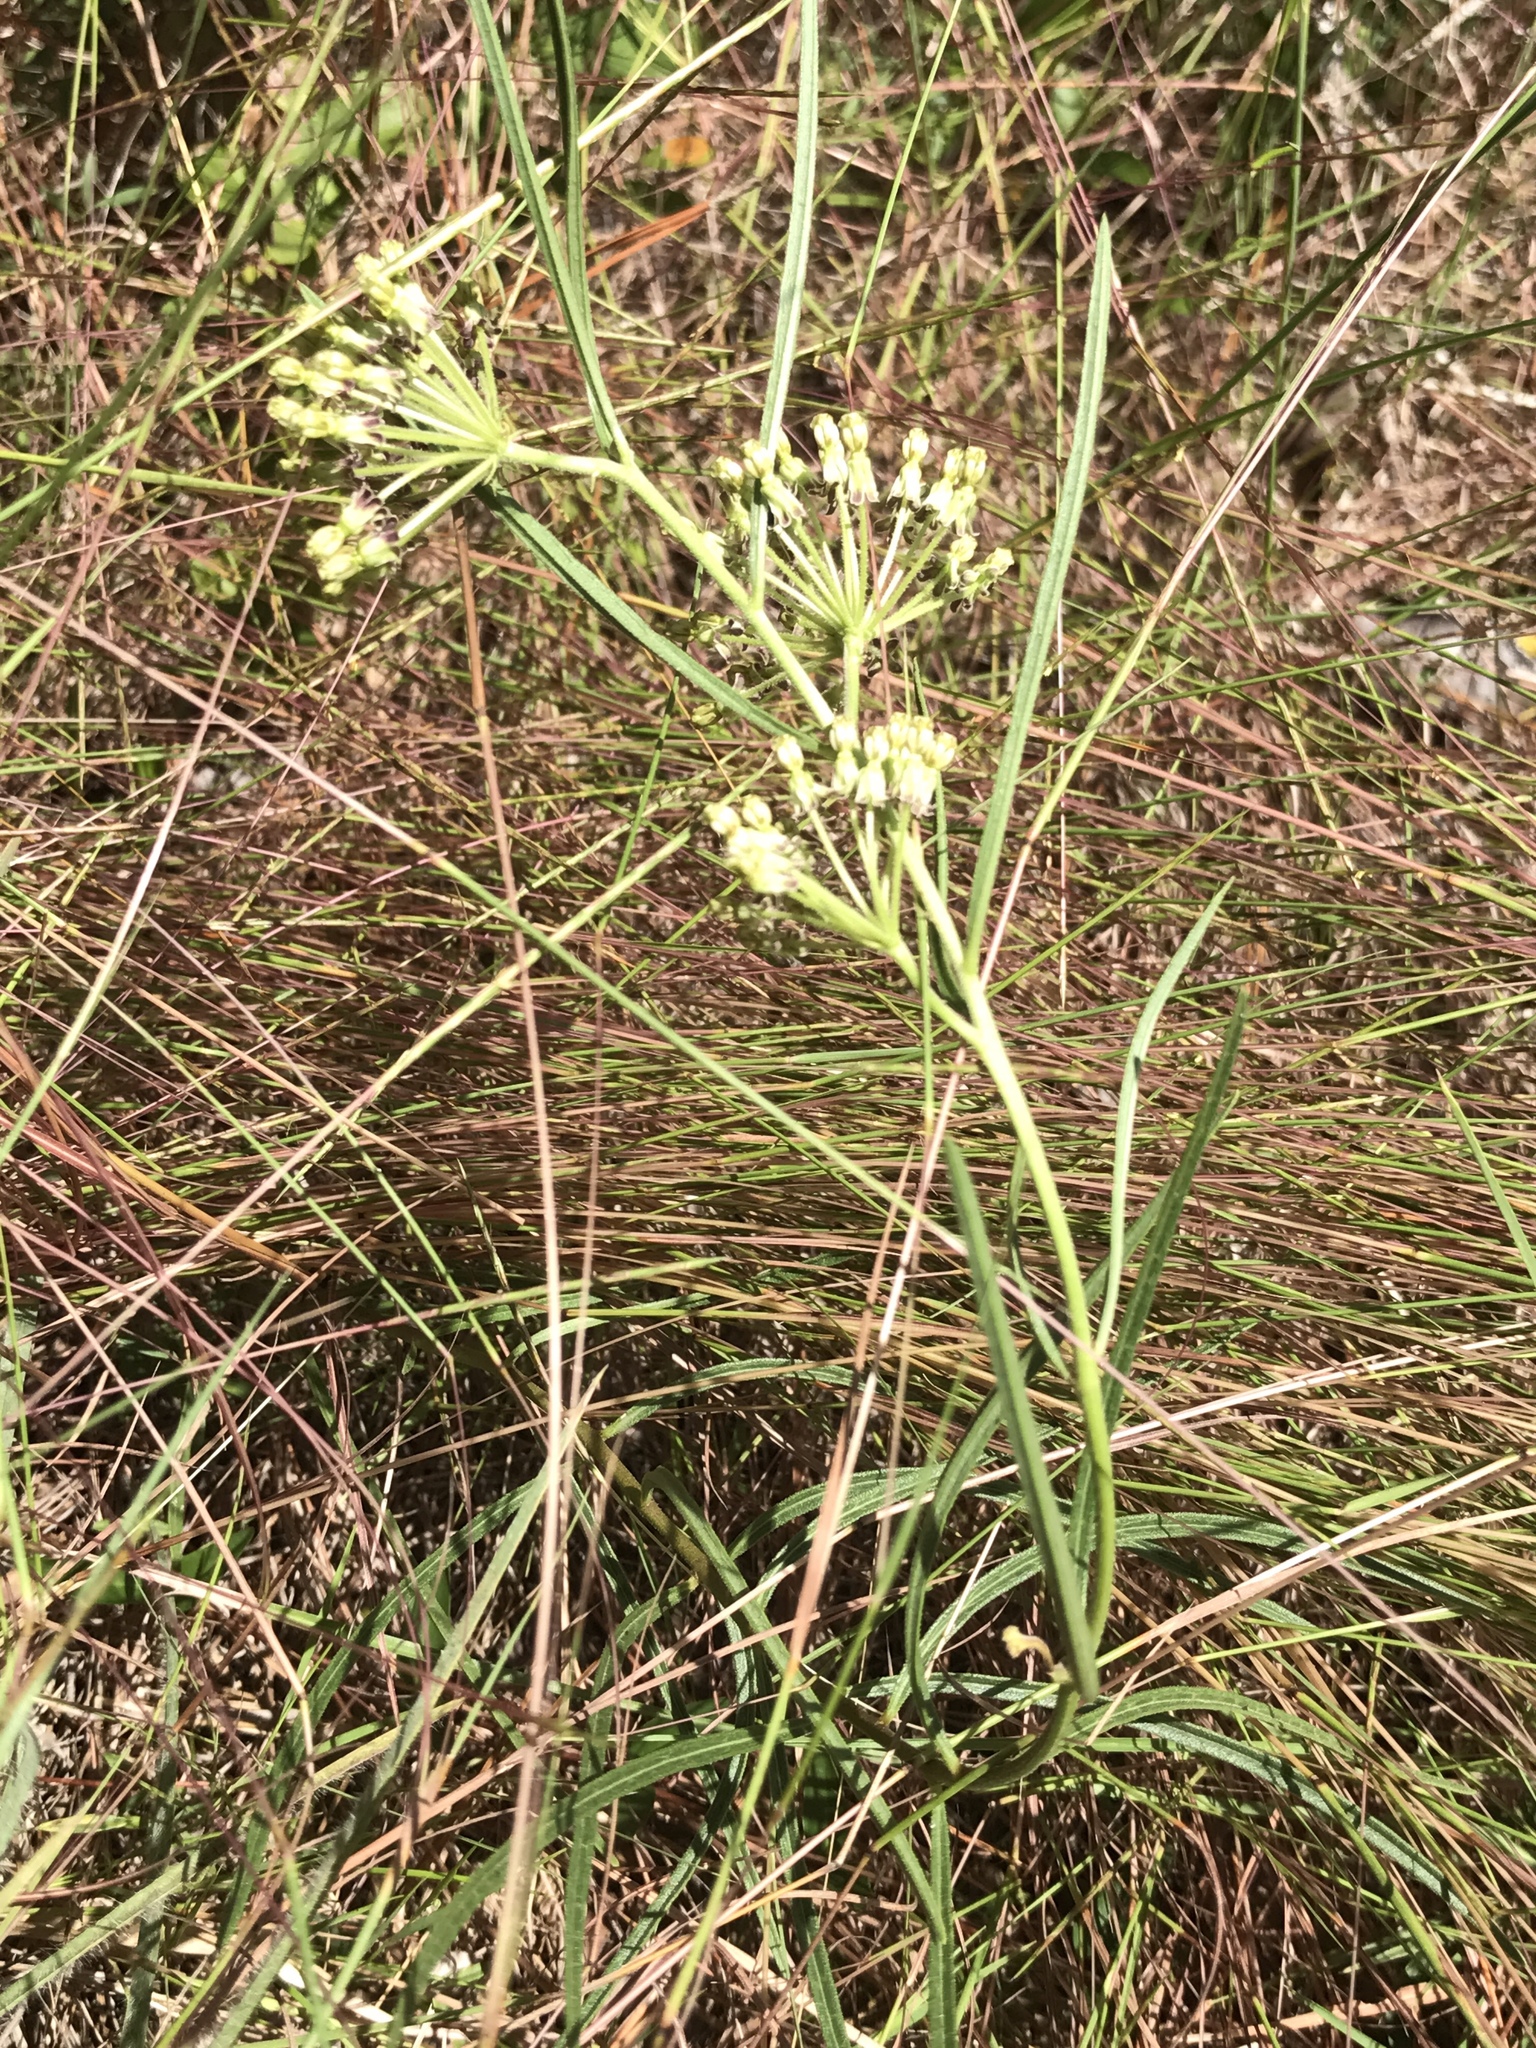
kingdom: Plantae
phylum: Tracheophyta
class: Magnoliopsida
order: Gentianales
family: Apocynaceae
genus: Asclepias
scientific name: Asclepias hirtella
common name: Prairie milkweed
